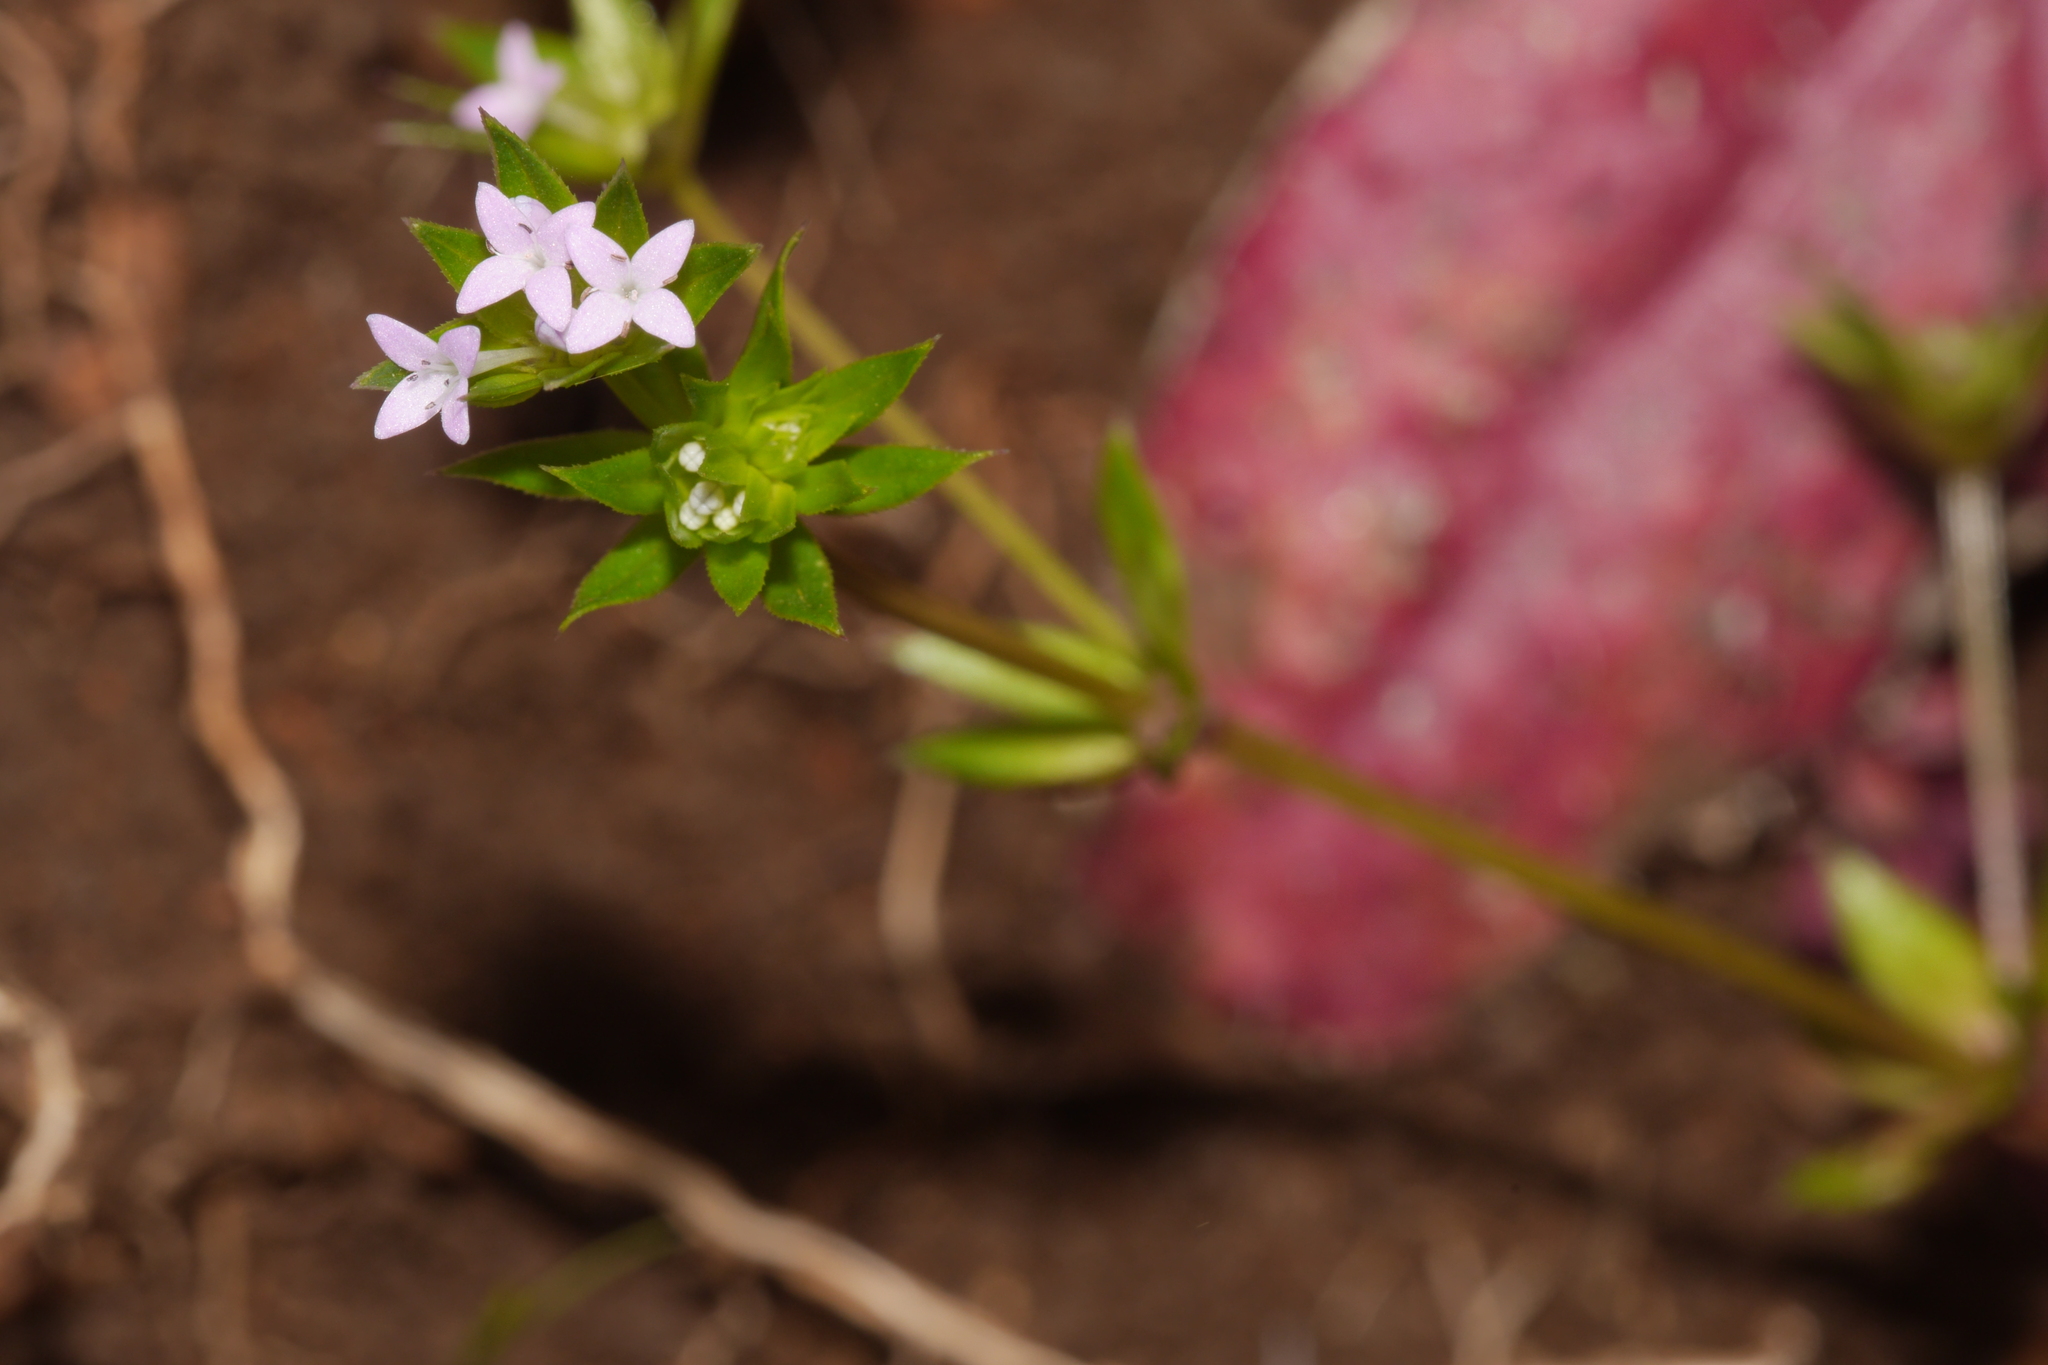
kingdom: Plantae
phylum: Tracheophyta
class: Magnoliopsida
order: Gentianales
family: Rubiaceae
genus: Sherardia
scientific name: Sherardia arvensis
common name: Field madder
